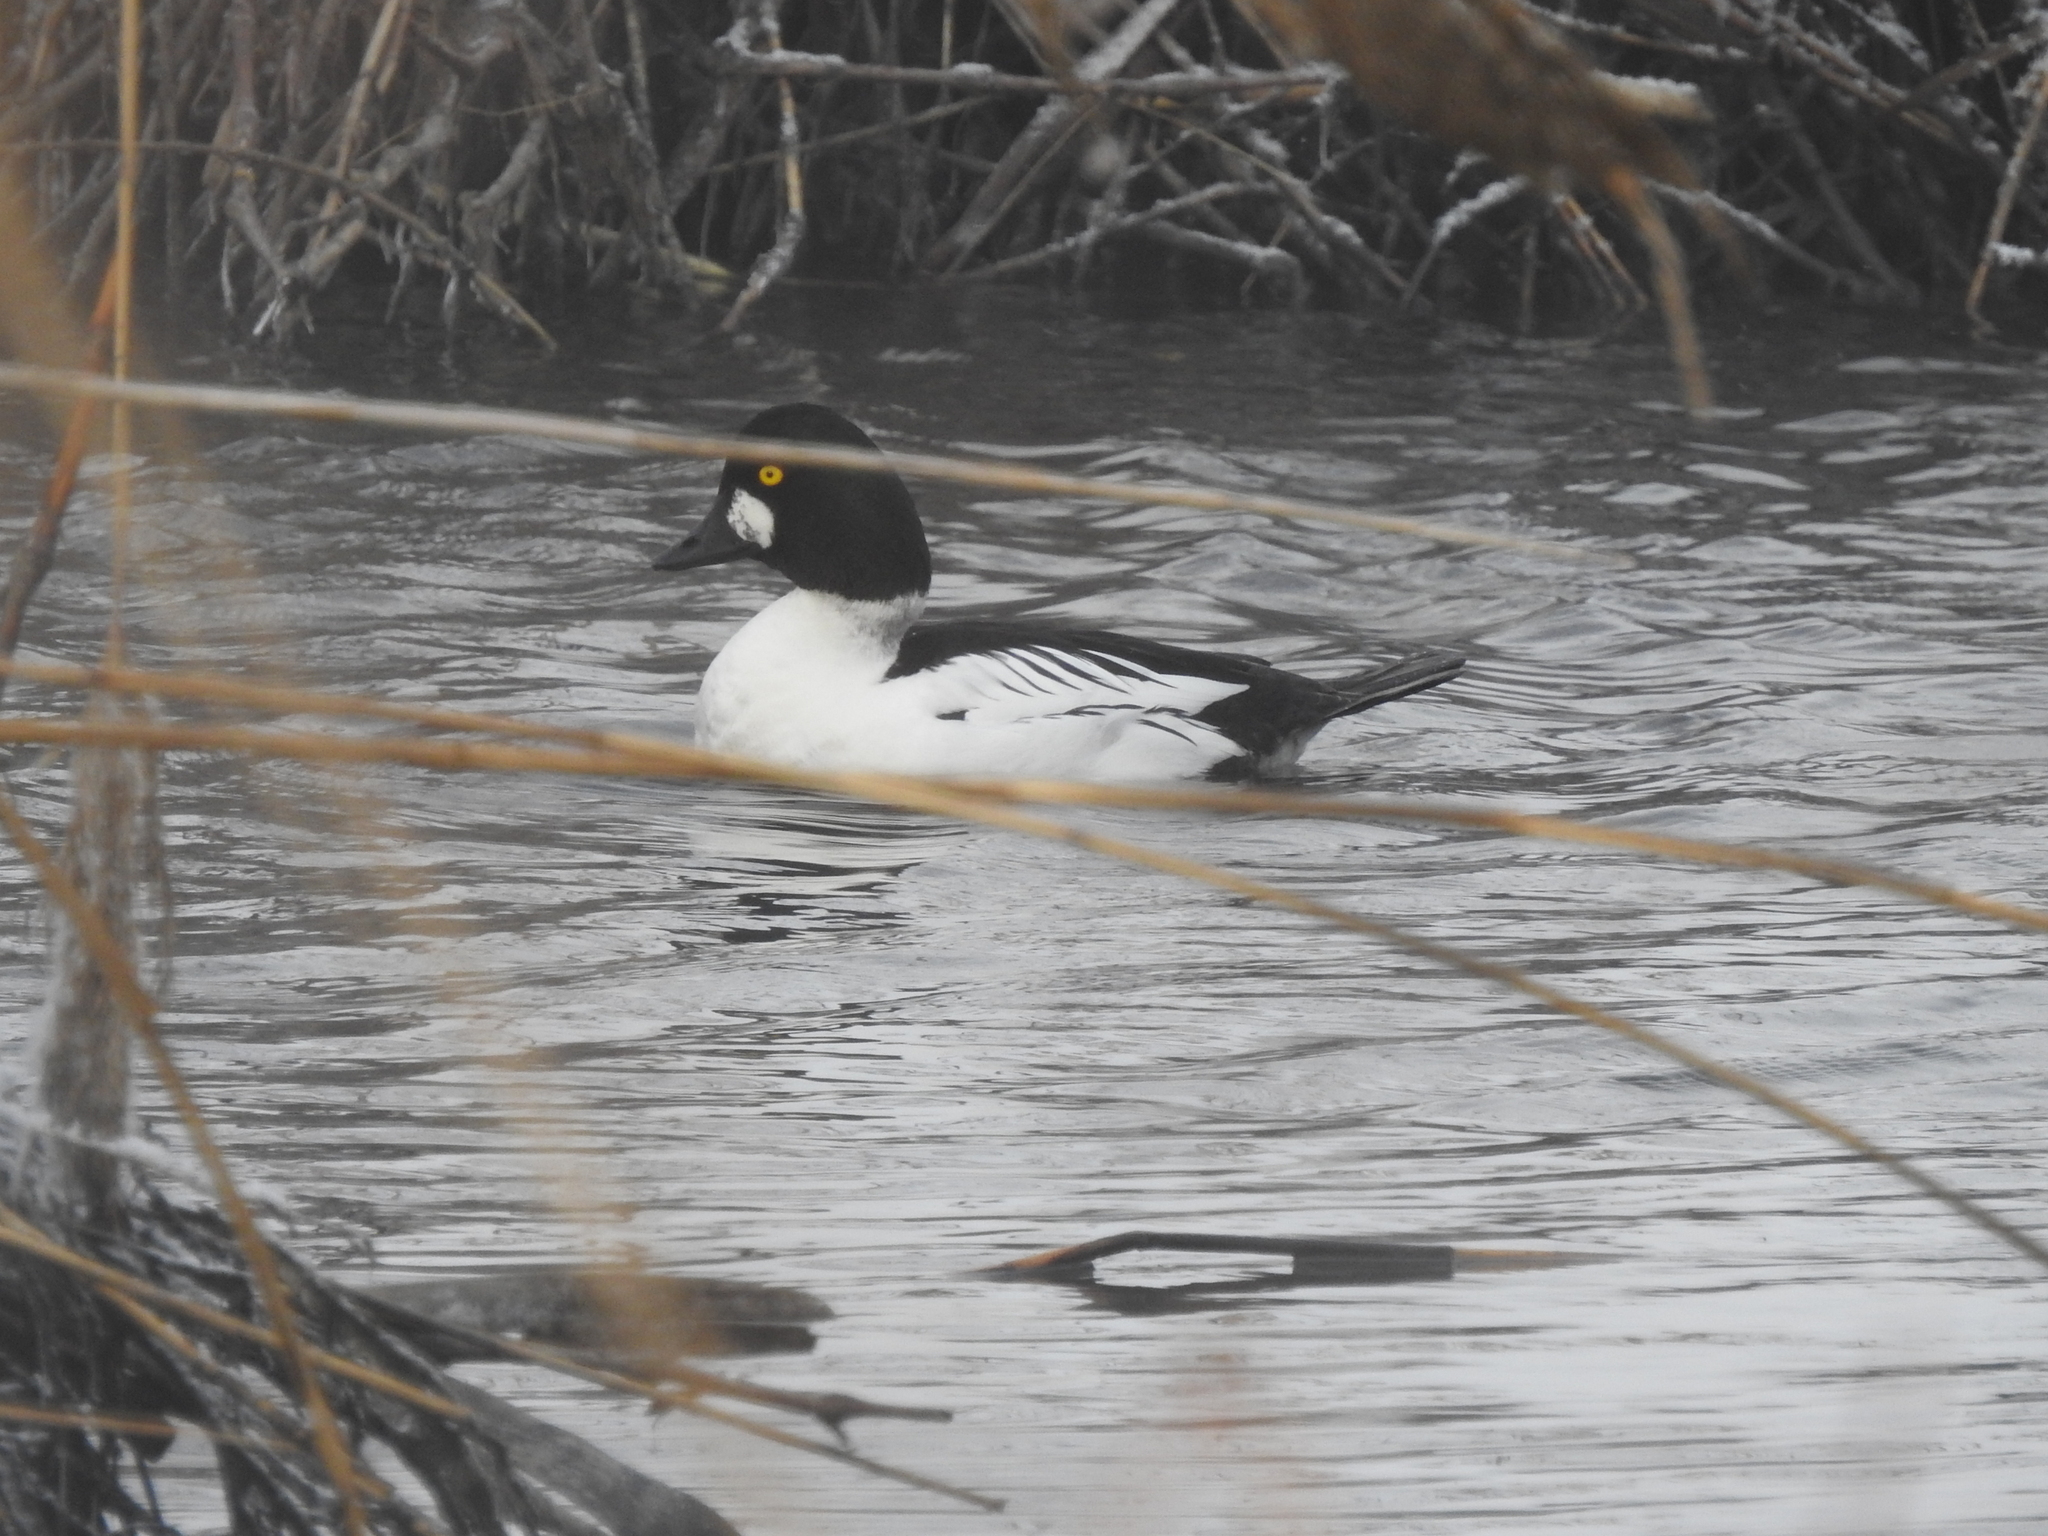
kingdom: Animalia
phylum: Chordata
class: Aves
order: Anseriformes
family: Anatidae
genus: Bucephala
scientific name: Bucephala clangula
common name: Common goldeneye
